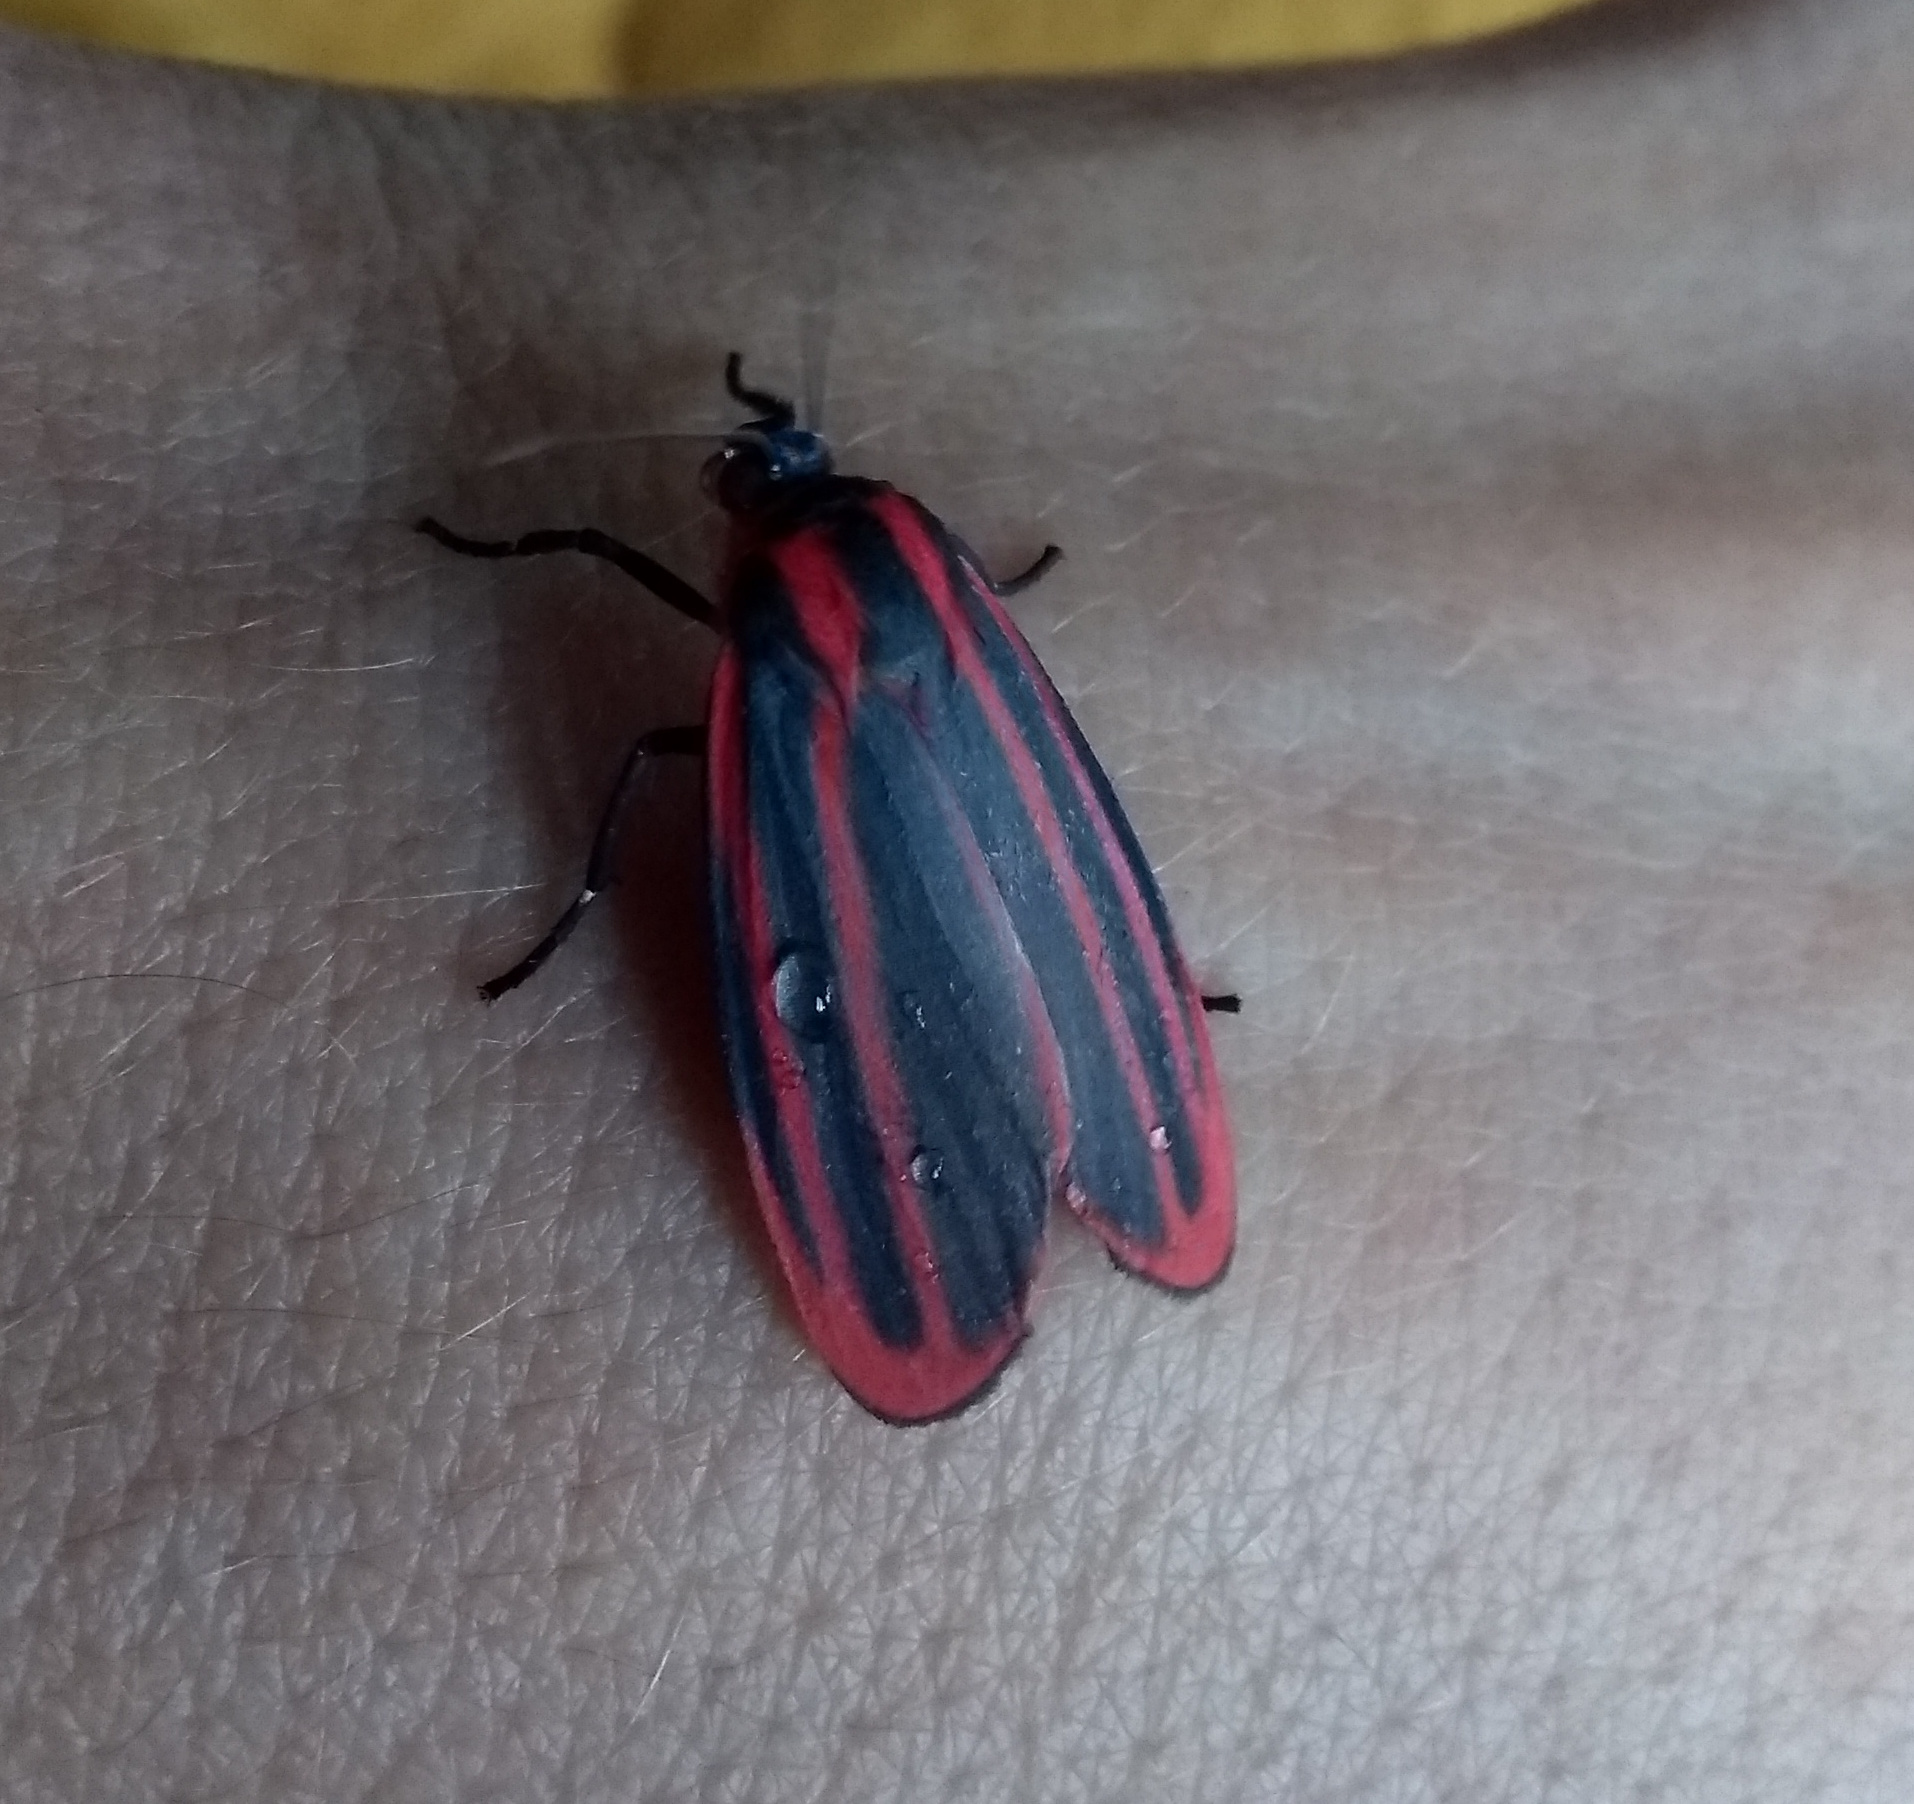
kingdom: Animalia
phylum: Arthropoda
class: Insecta
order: Lepidoptera
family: Erebidae
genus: Cissura
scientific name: Cissura decora
